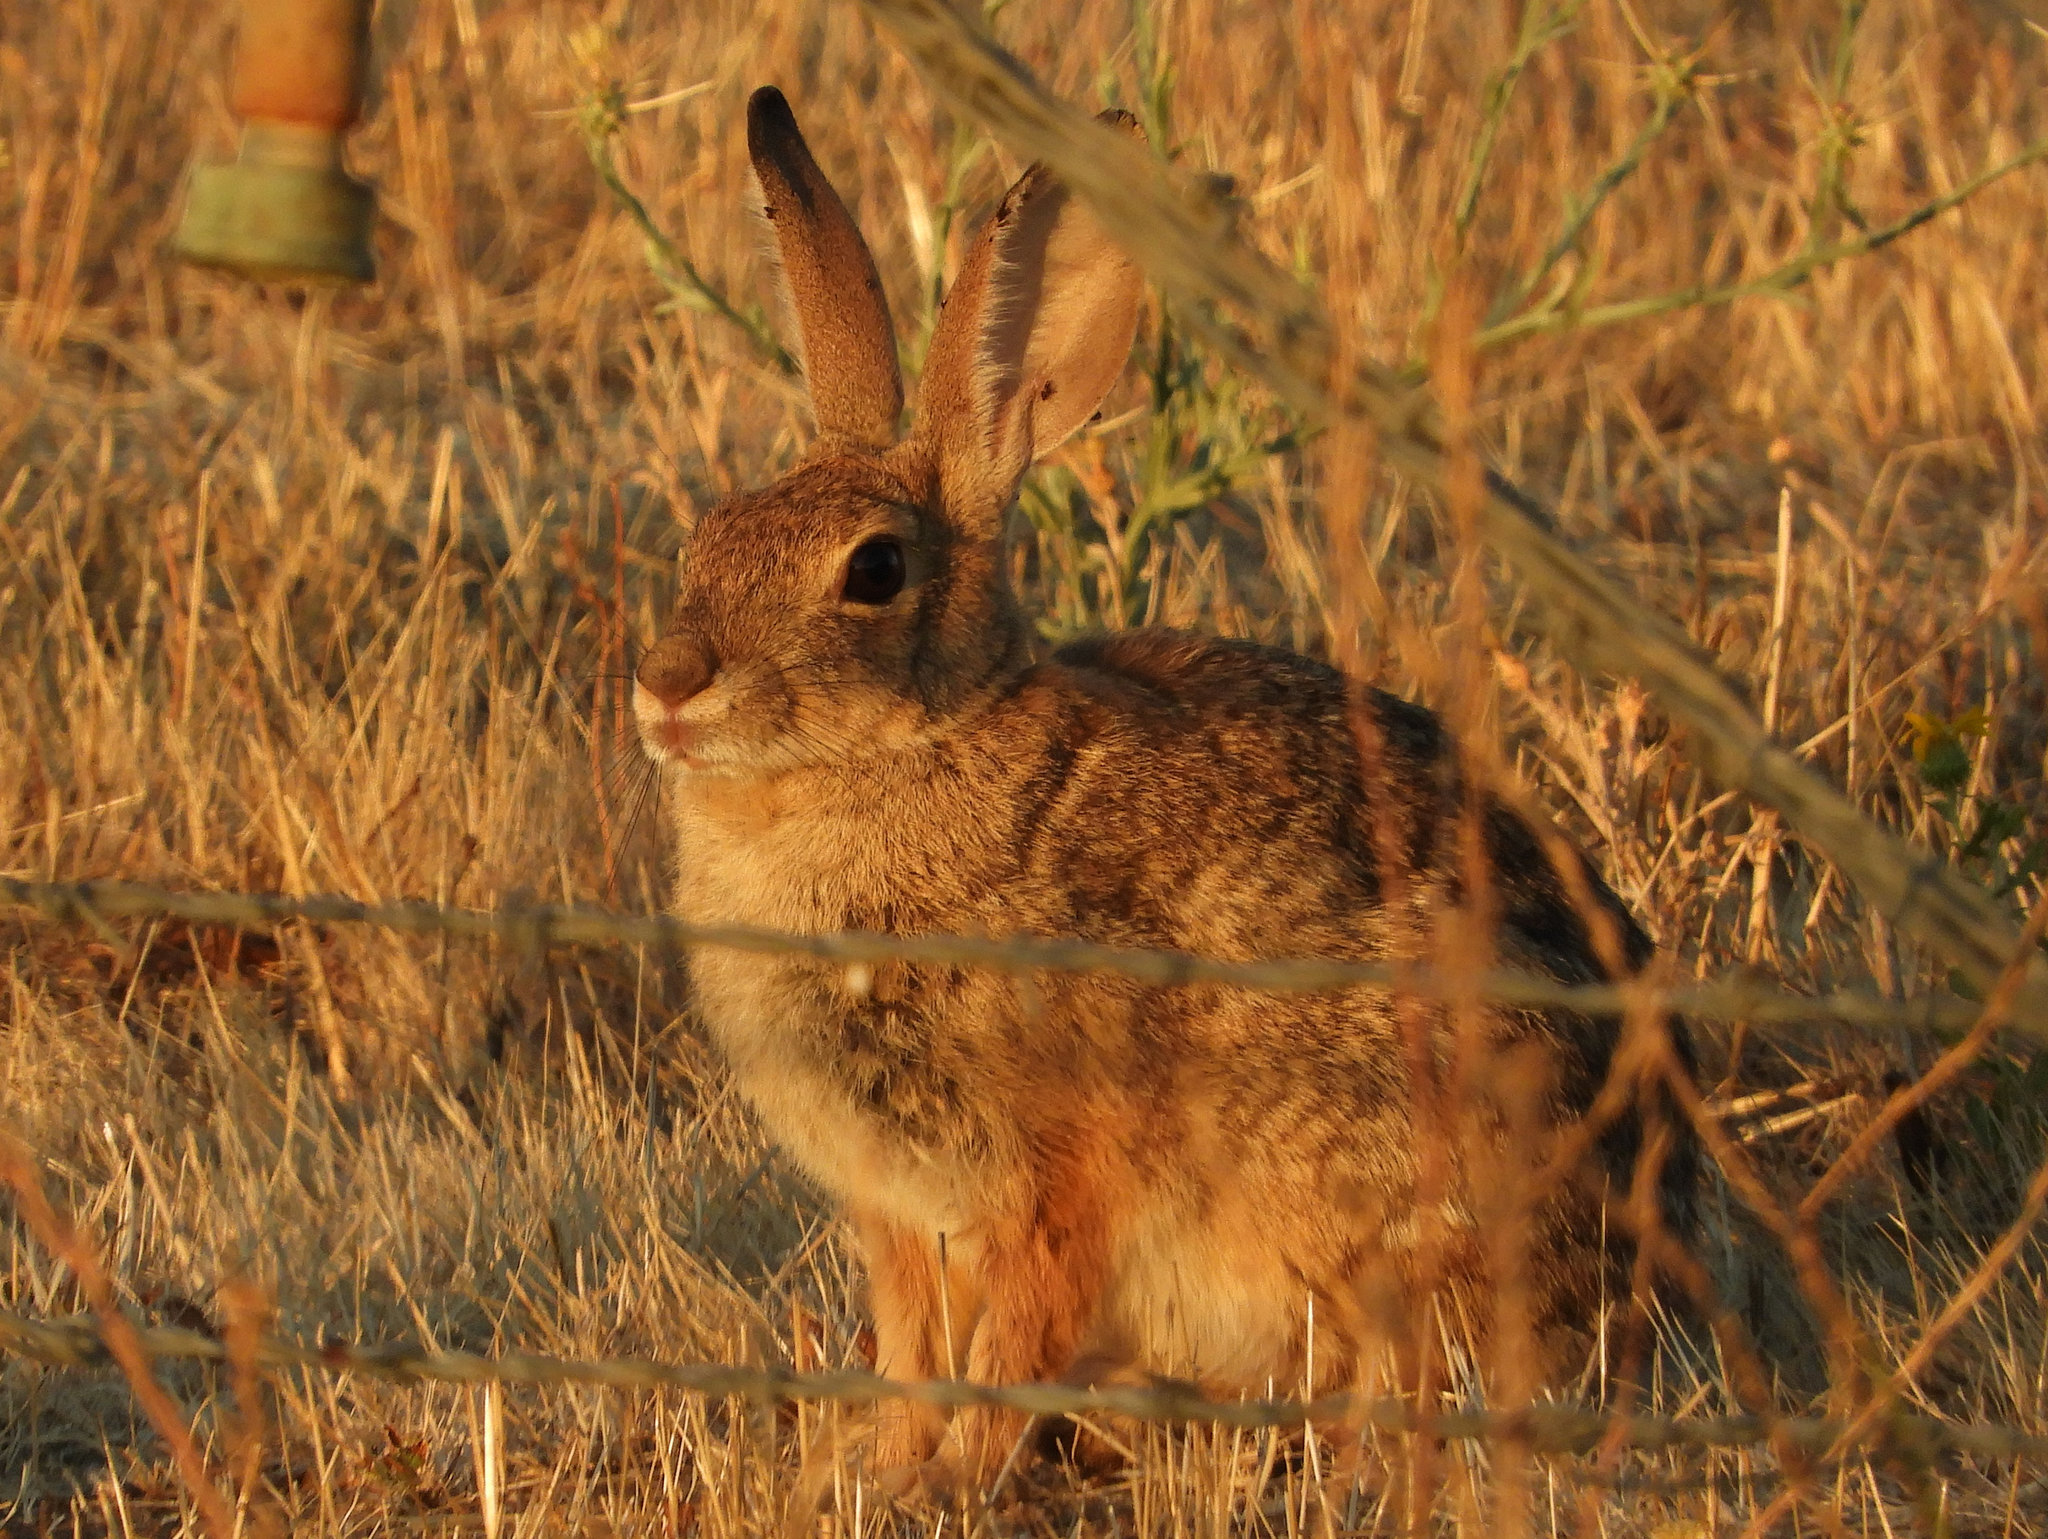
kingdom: Animalia
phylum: Chordata
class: Mammalia
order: Lagomorpha
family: Leporidae
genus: Sylvilagus
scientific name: Sylvilagus audubonii
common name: Desert cottontail
